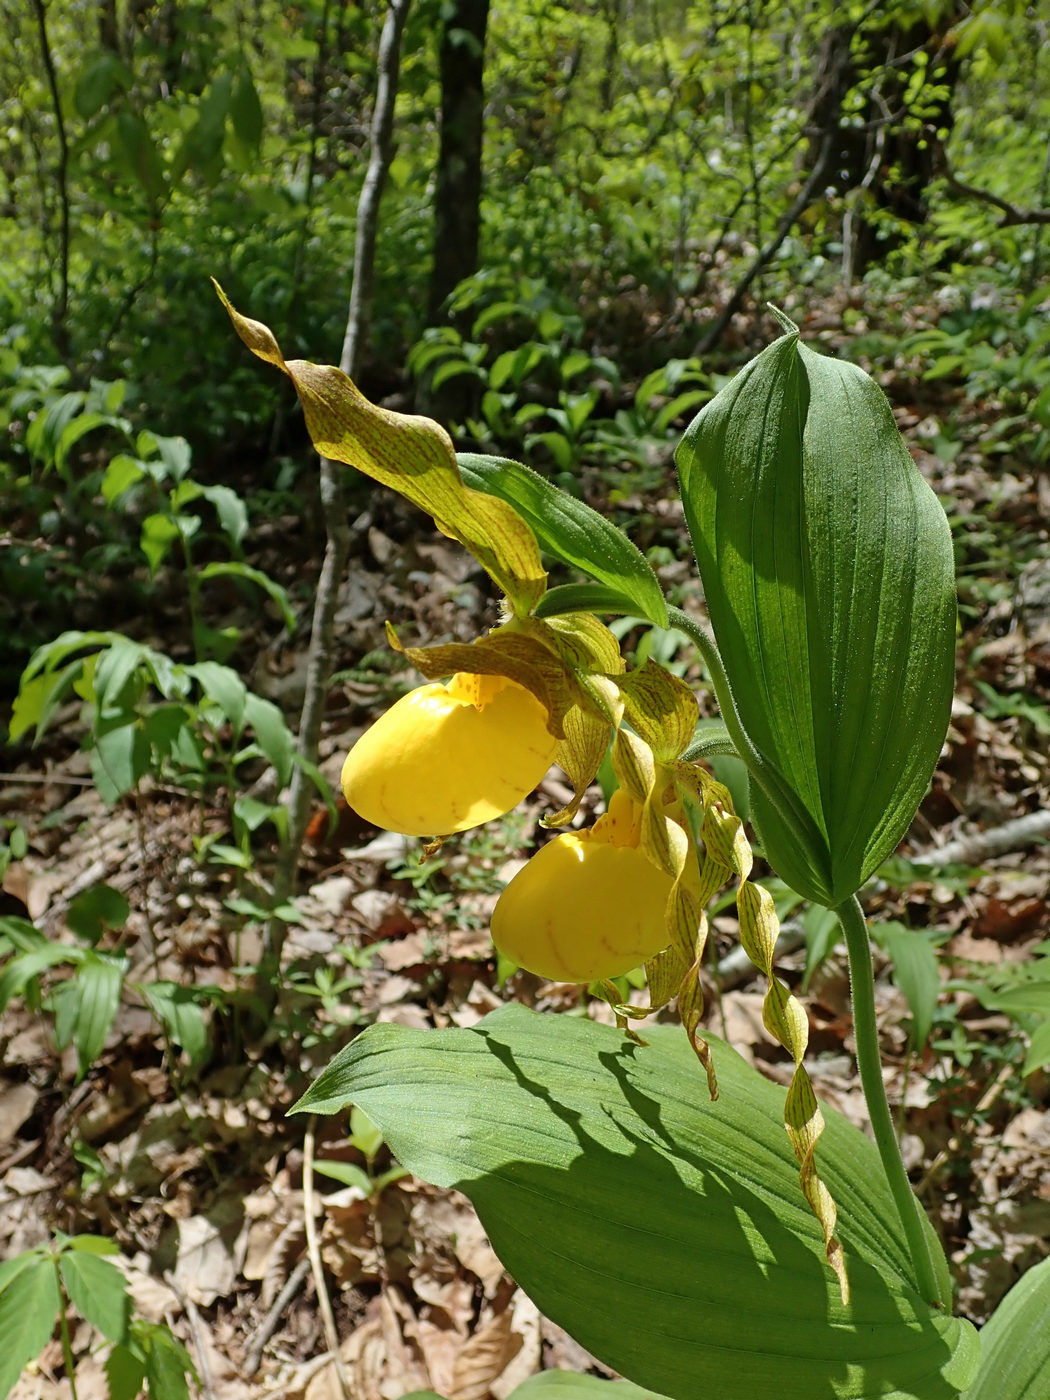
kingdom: Plantae
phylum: Tracheophyta
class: Liliopsida
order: Asparagales
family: Orchidaceae
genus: Cypripedium
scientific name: Cypripedium parviflorum
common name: American yellow lady's-slipper
